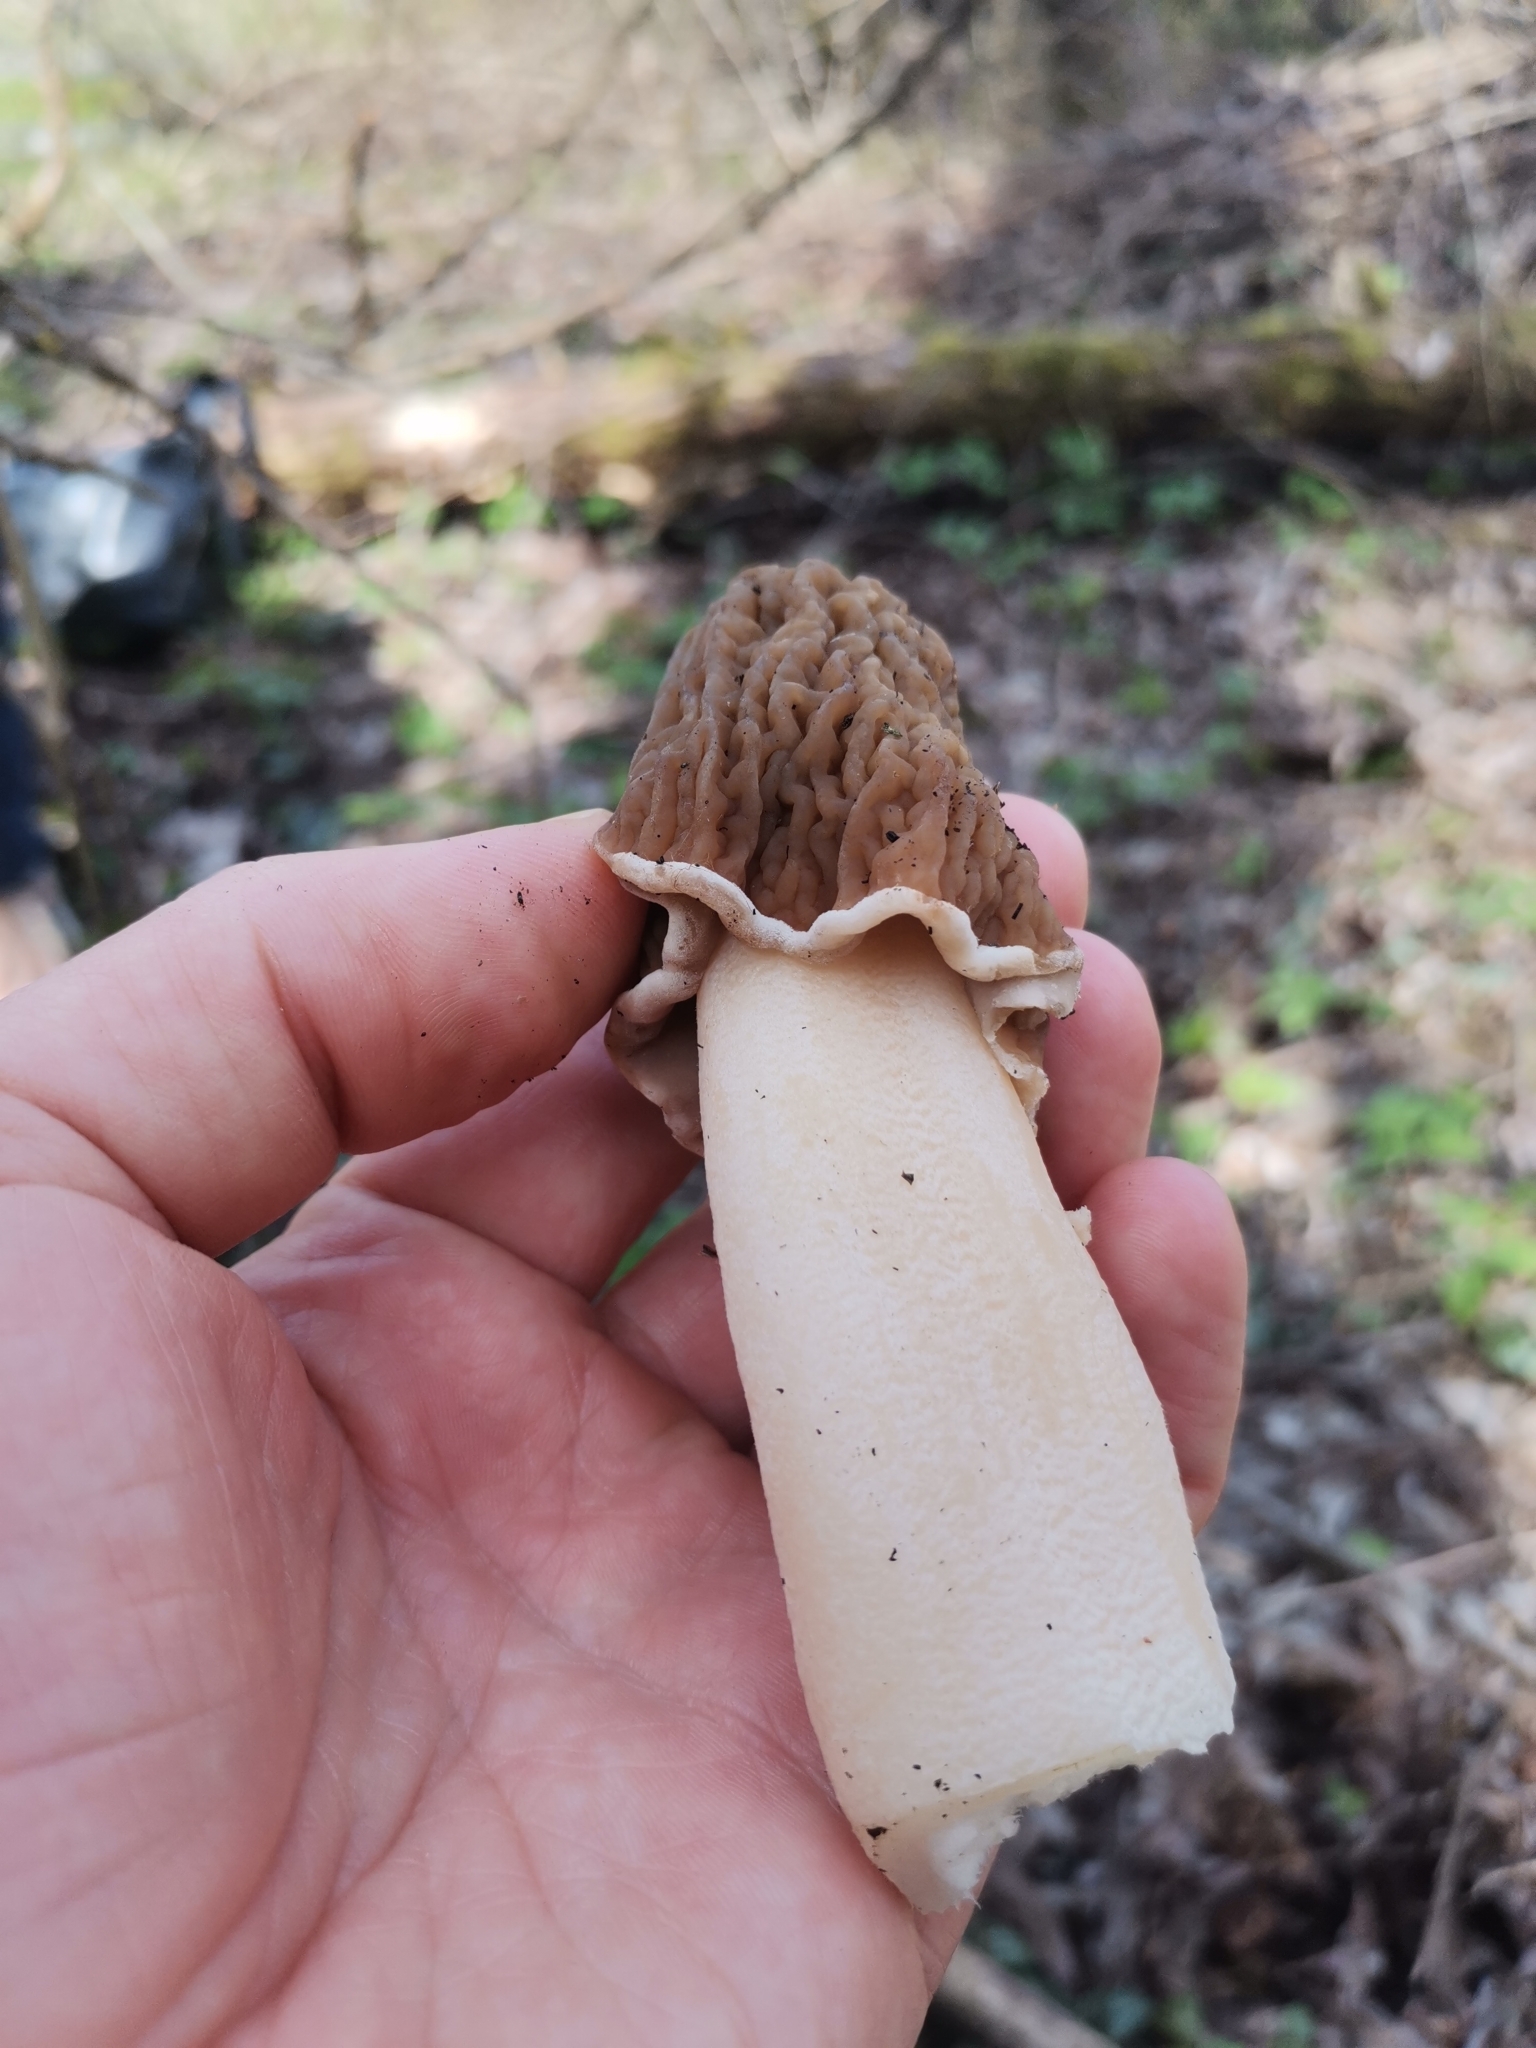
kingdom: Fungi
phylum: Ascomycota
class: Pezizomycetes
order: Pezizales
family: Morchellaceae
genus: Verpa
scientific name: Verpa bohemica
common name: Wrinkled thimble morel
